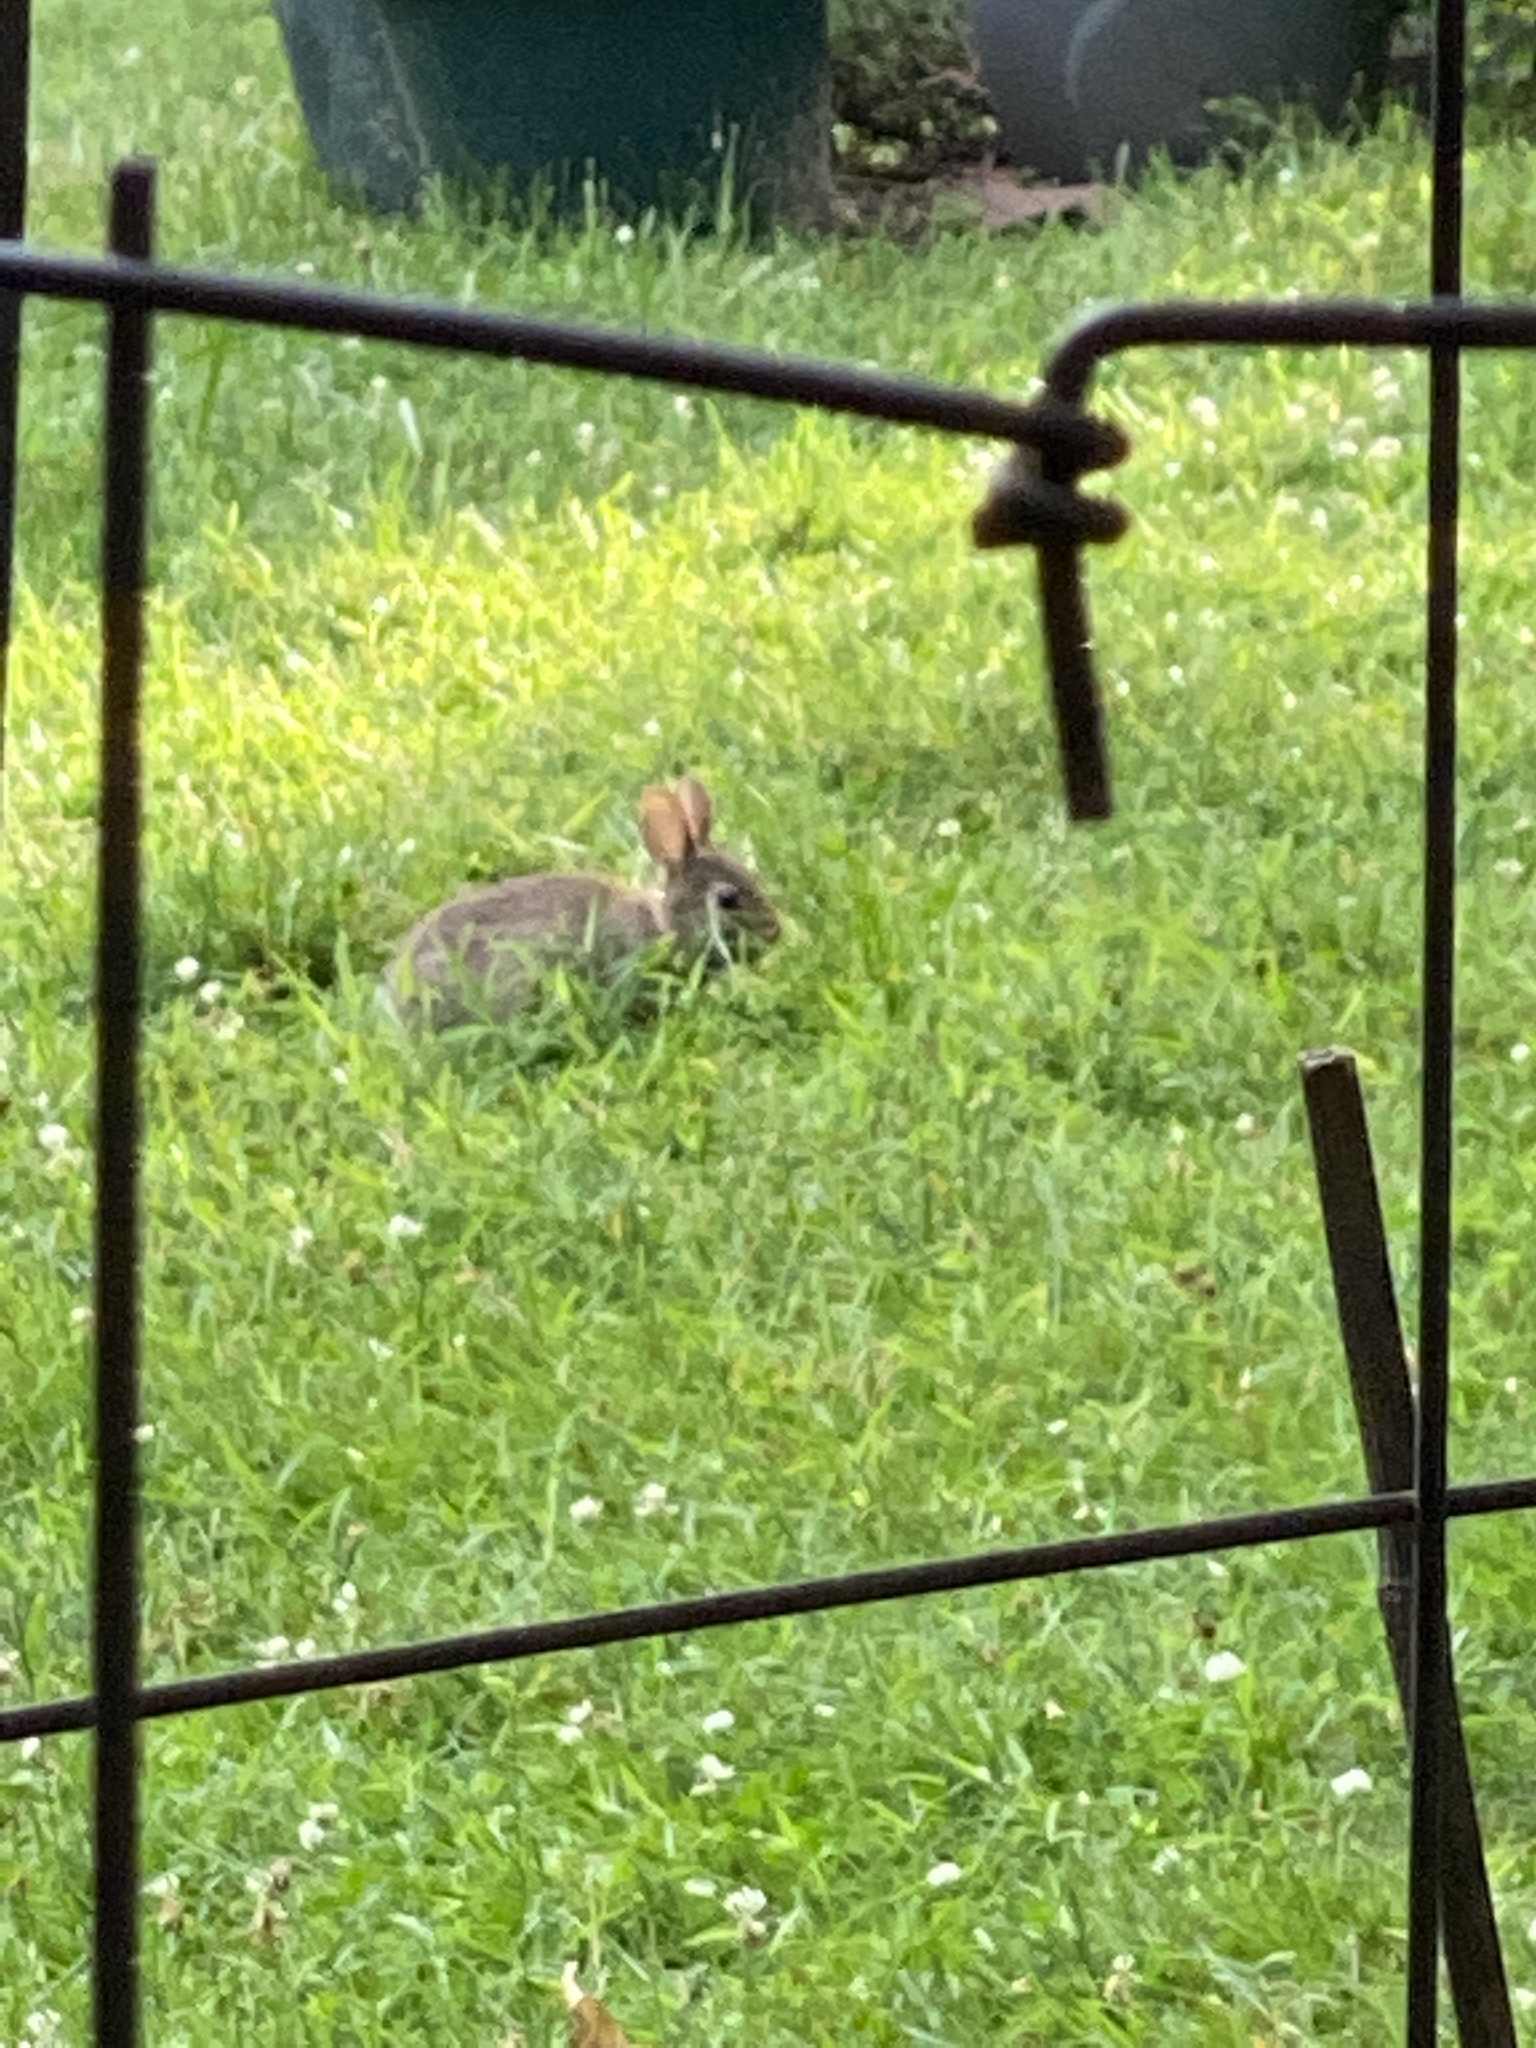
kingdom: Animalia
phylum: Chordata
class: Mammalia
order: Lagomorpha
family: Leporidae
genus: Sylvilagus
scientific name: Sylvilagus floridanus
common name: Eastern cottontail
